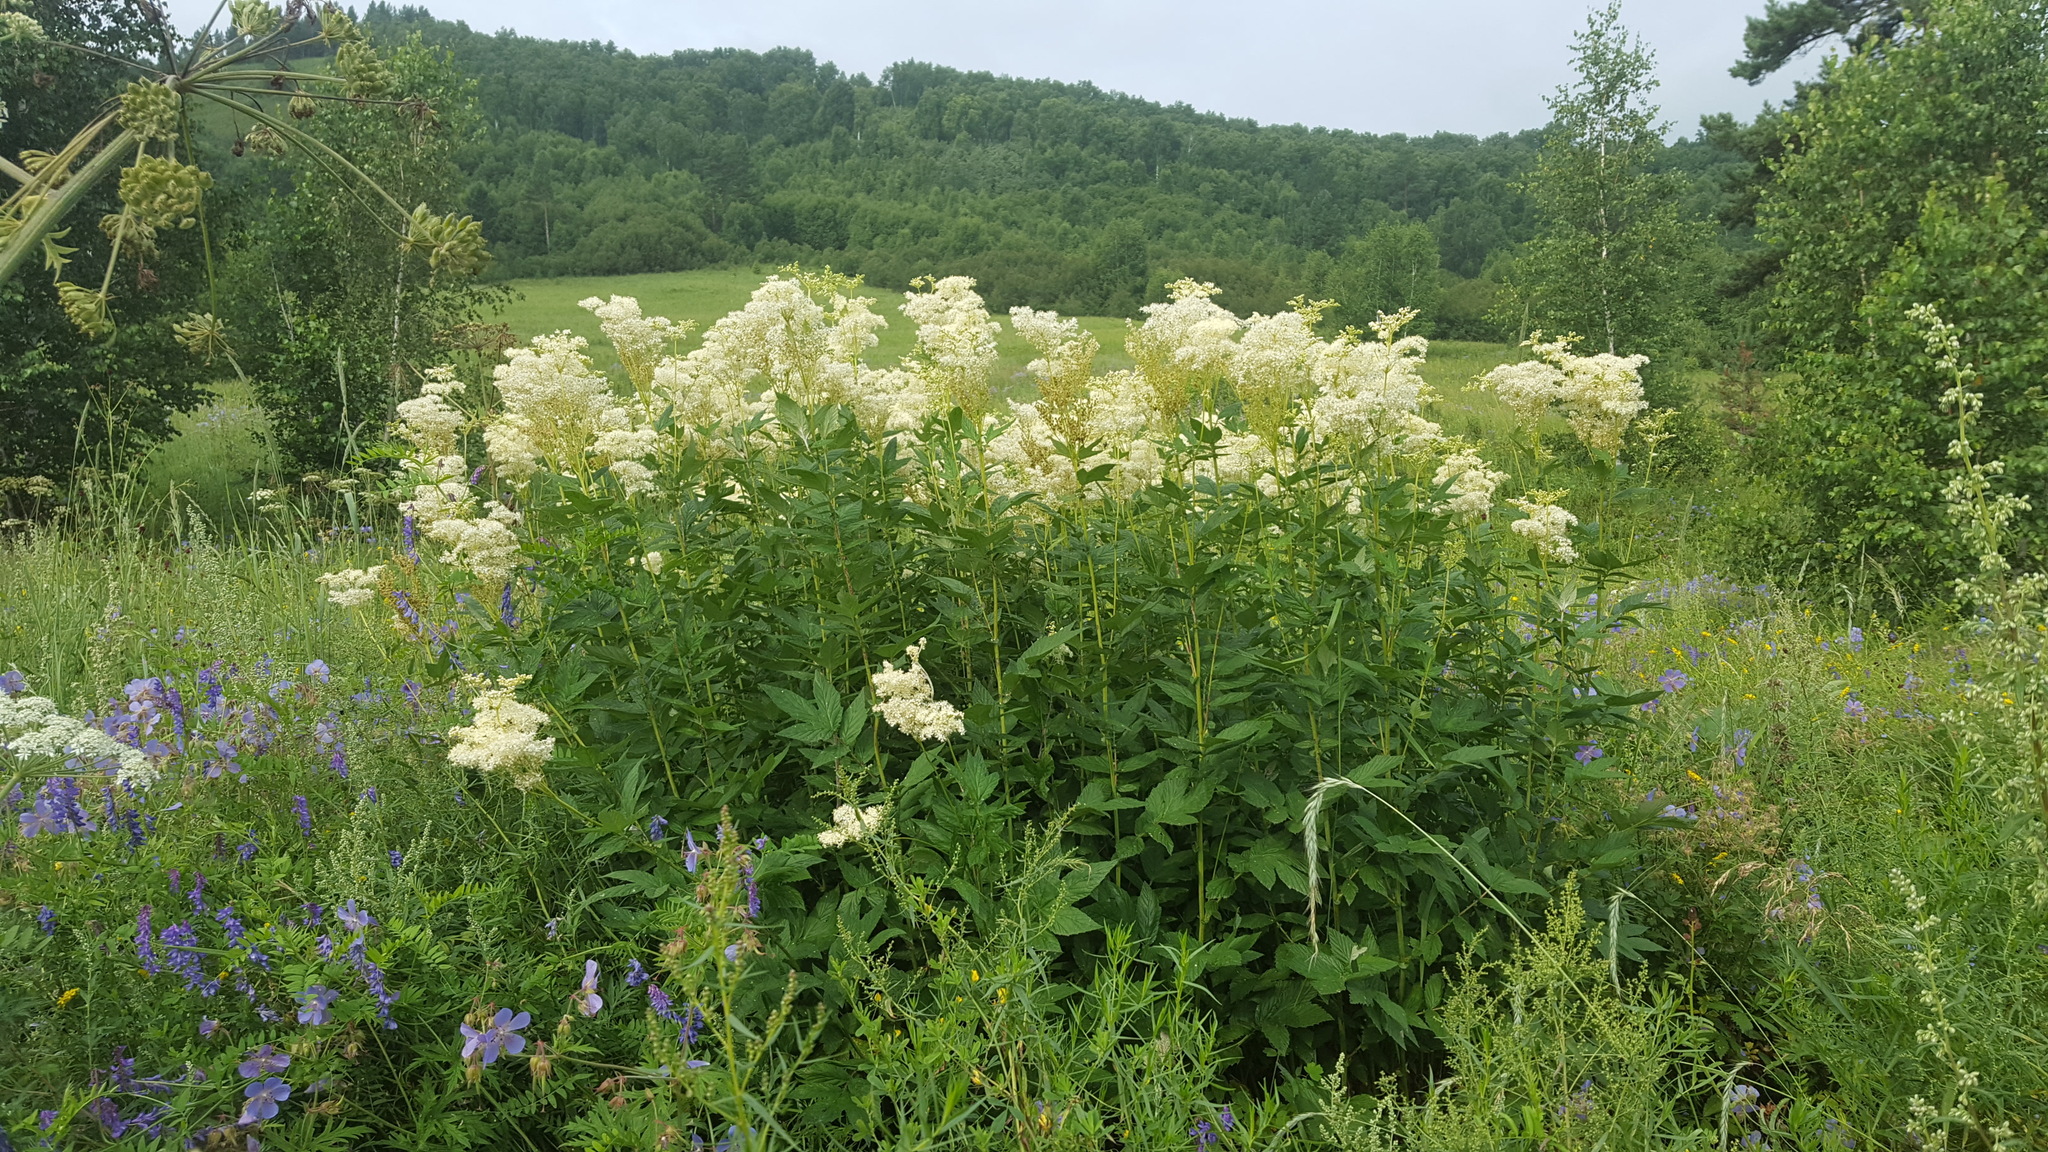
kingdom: Plantae
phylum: Tracheophyta
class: Magnoliopsida
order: Rosales
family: Rosaceae
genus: Filipendula
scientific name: Filipendula ulmaria
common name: Meadowsweet
